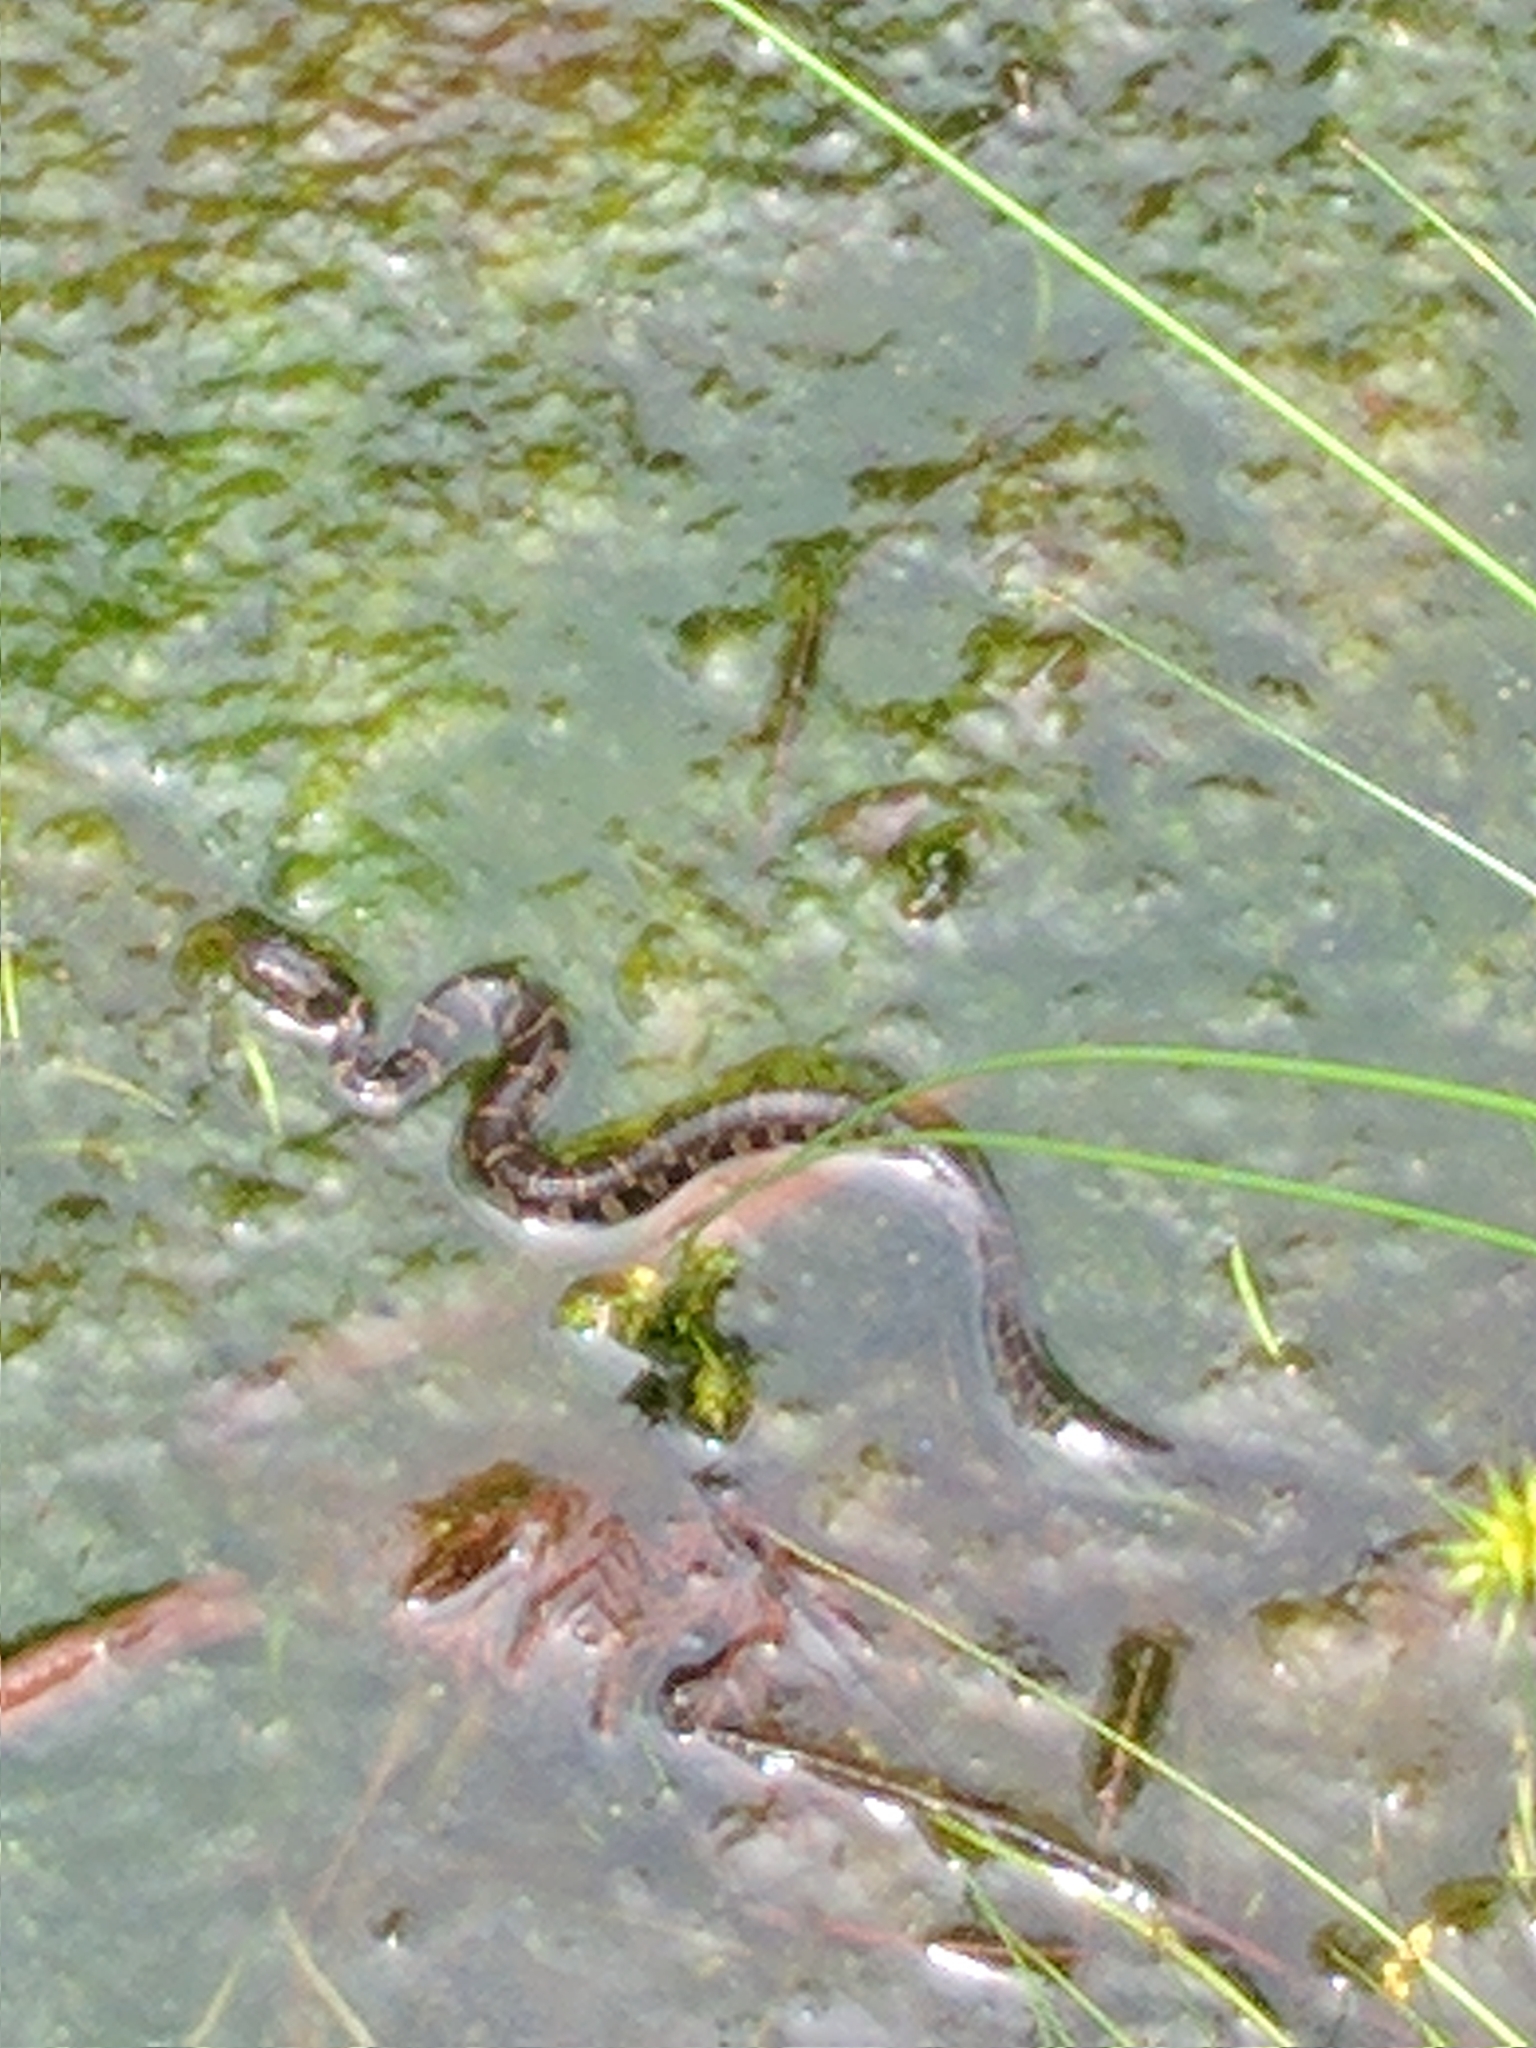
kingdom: Animalia
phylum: Chordata
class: Squamata
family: Colubridae
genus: Nerodia
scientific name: Nerodia sipedon
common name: Northern water snake
